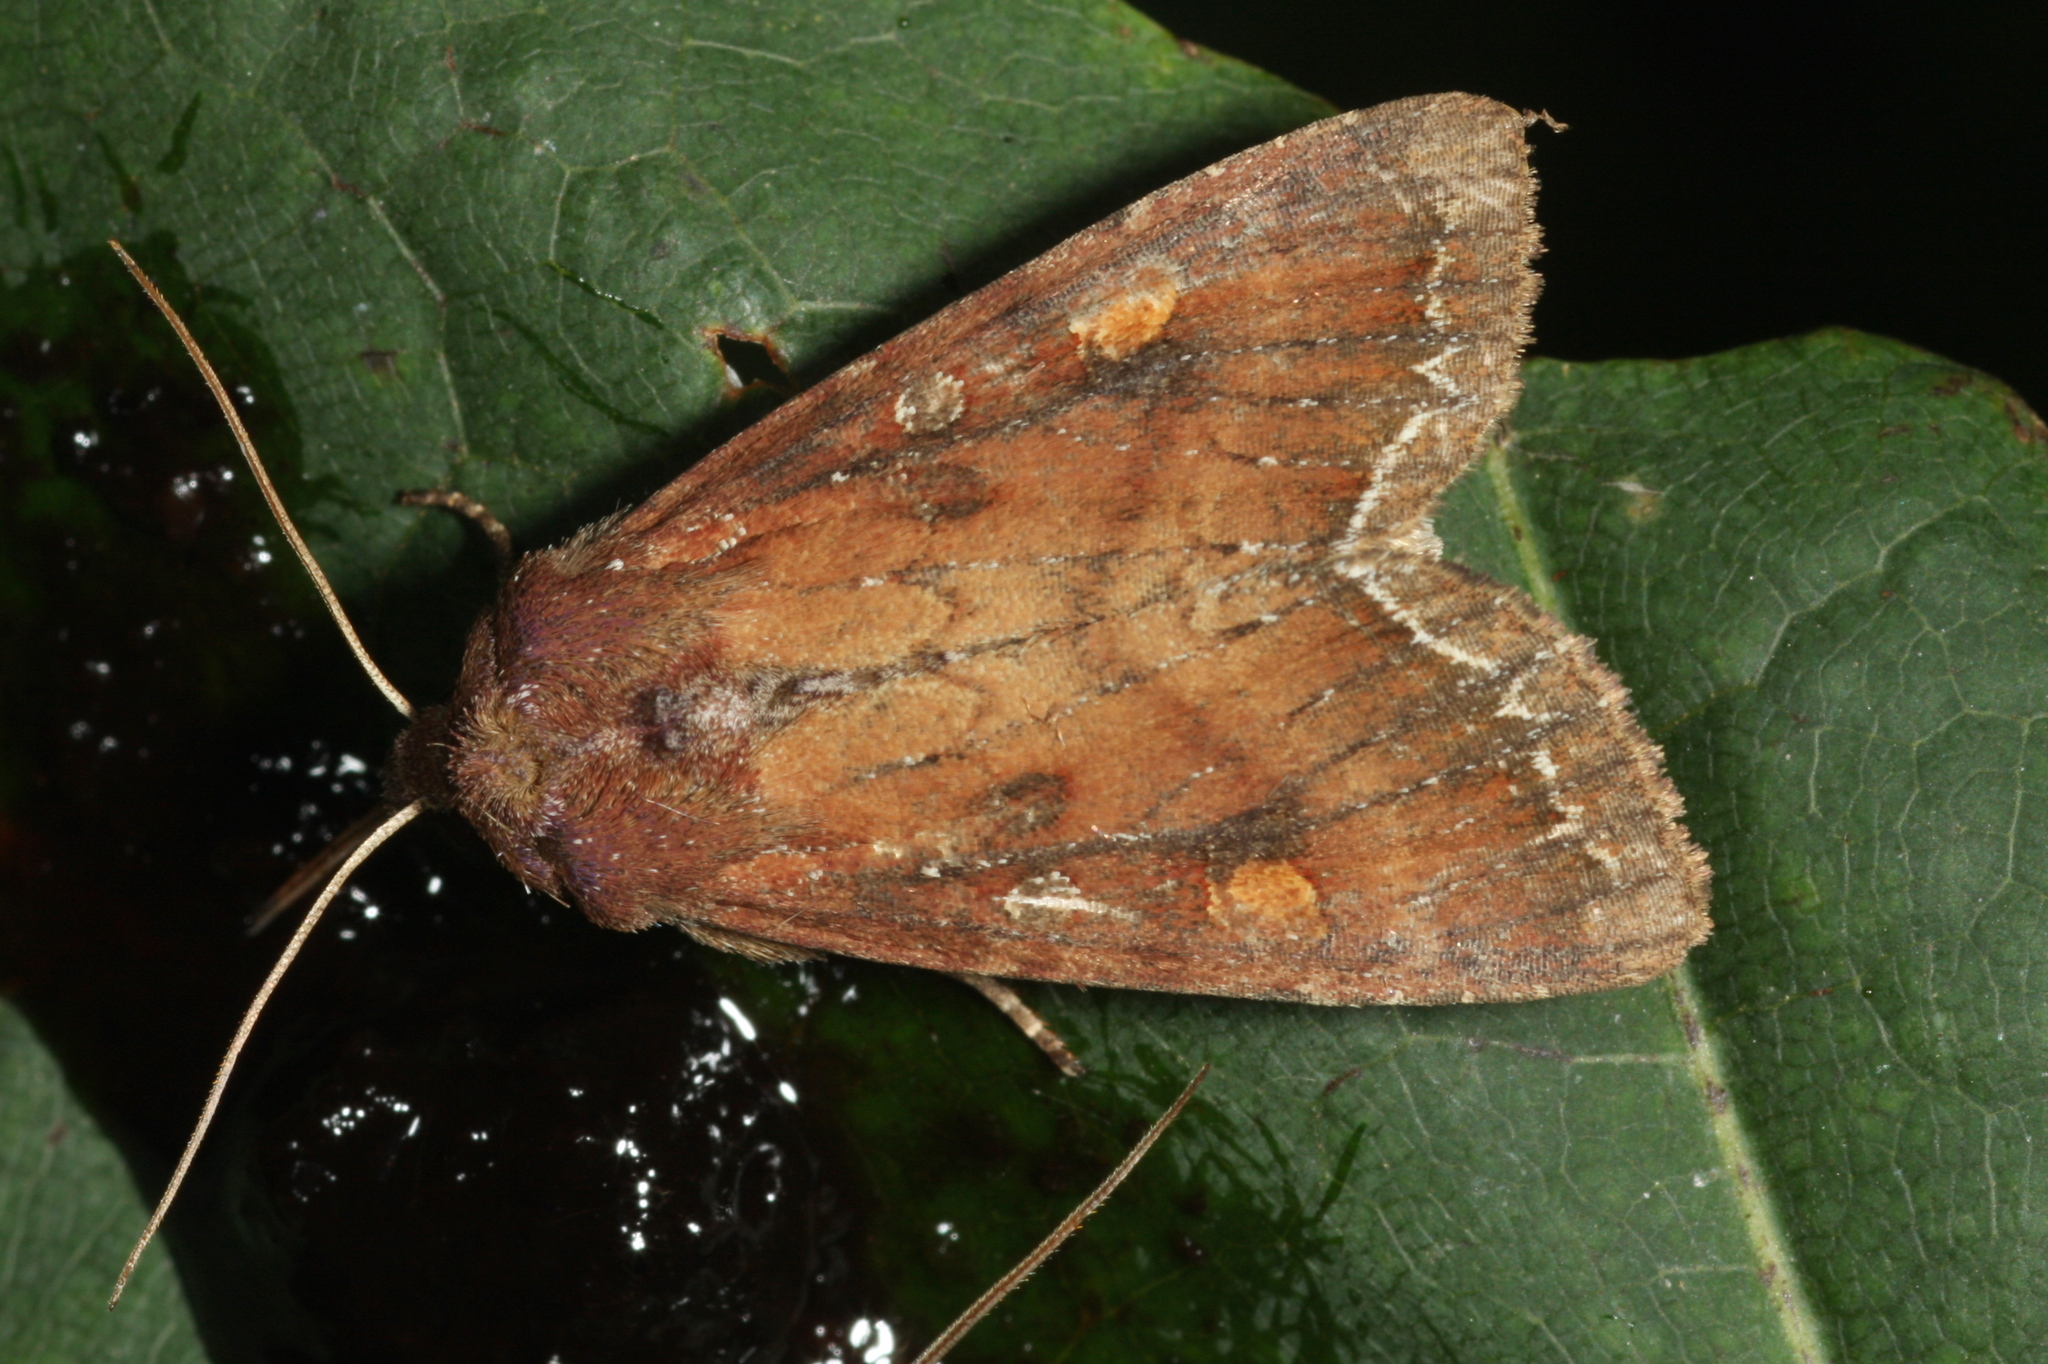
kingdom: Animalia
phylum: Arthropoda
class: Insecta
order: Lepidoptera
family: Noctuidae
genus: Lacanobia
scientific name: Lacanobia oleracea
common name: Bright-line brown-eye
